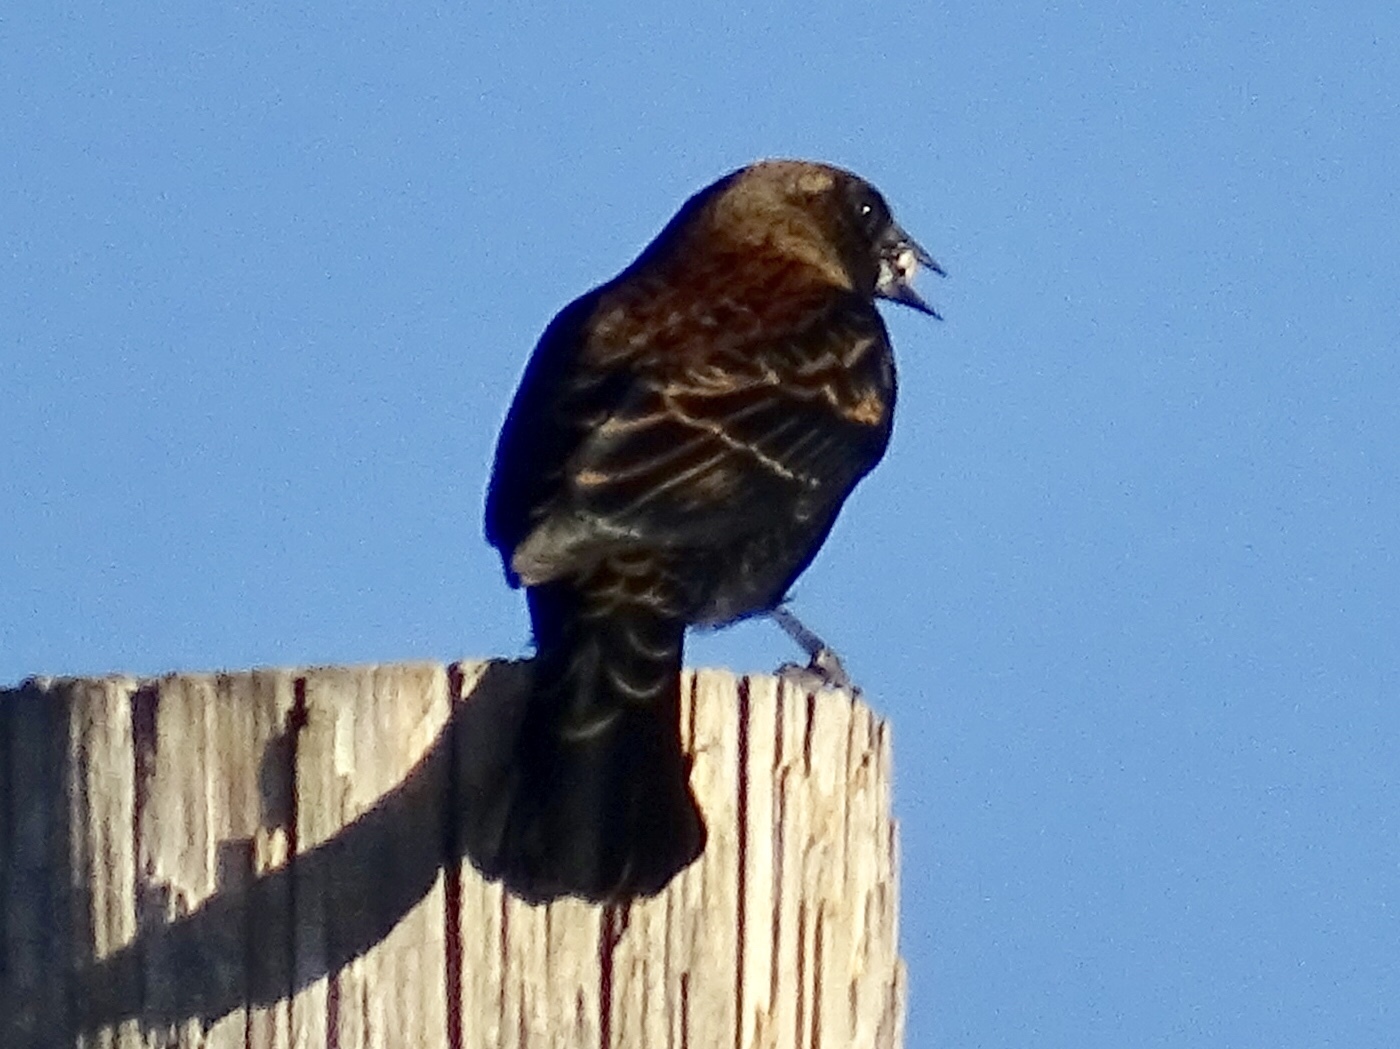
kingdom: Animalia
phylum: Chordata
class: Aves
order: Passeriformes
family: Icteridae
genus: Molothrus
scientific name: Molothrus ater
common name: Brown-headed cowbird
